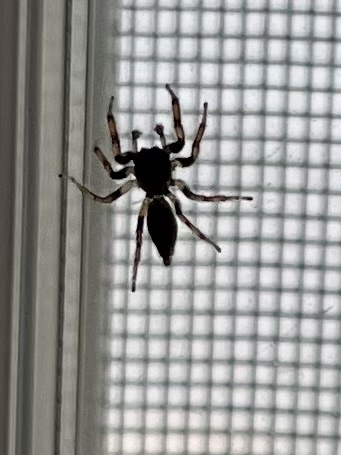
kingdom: Animalia
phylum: Arthropoda
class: Arachnida
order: Araneae
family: Salticidae
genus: Colonus
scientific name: Colonus hesperus
